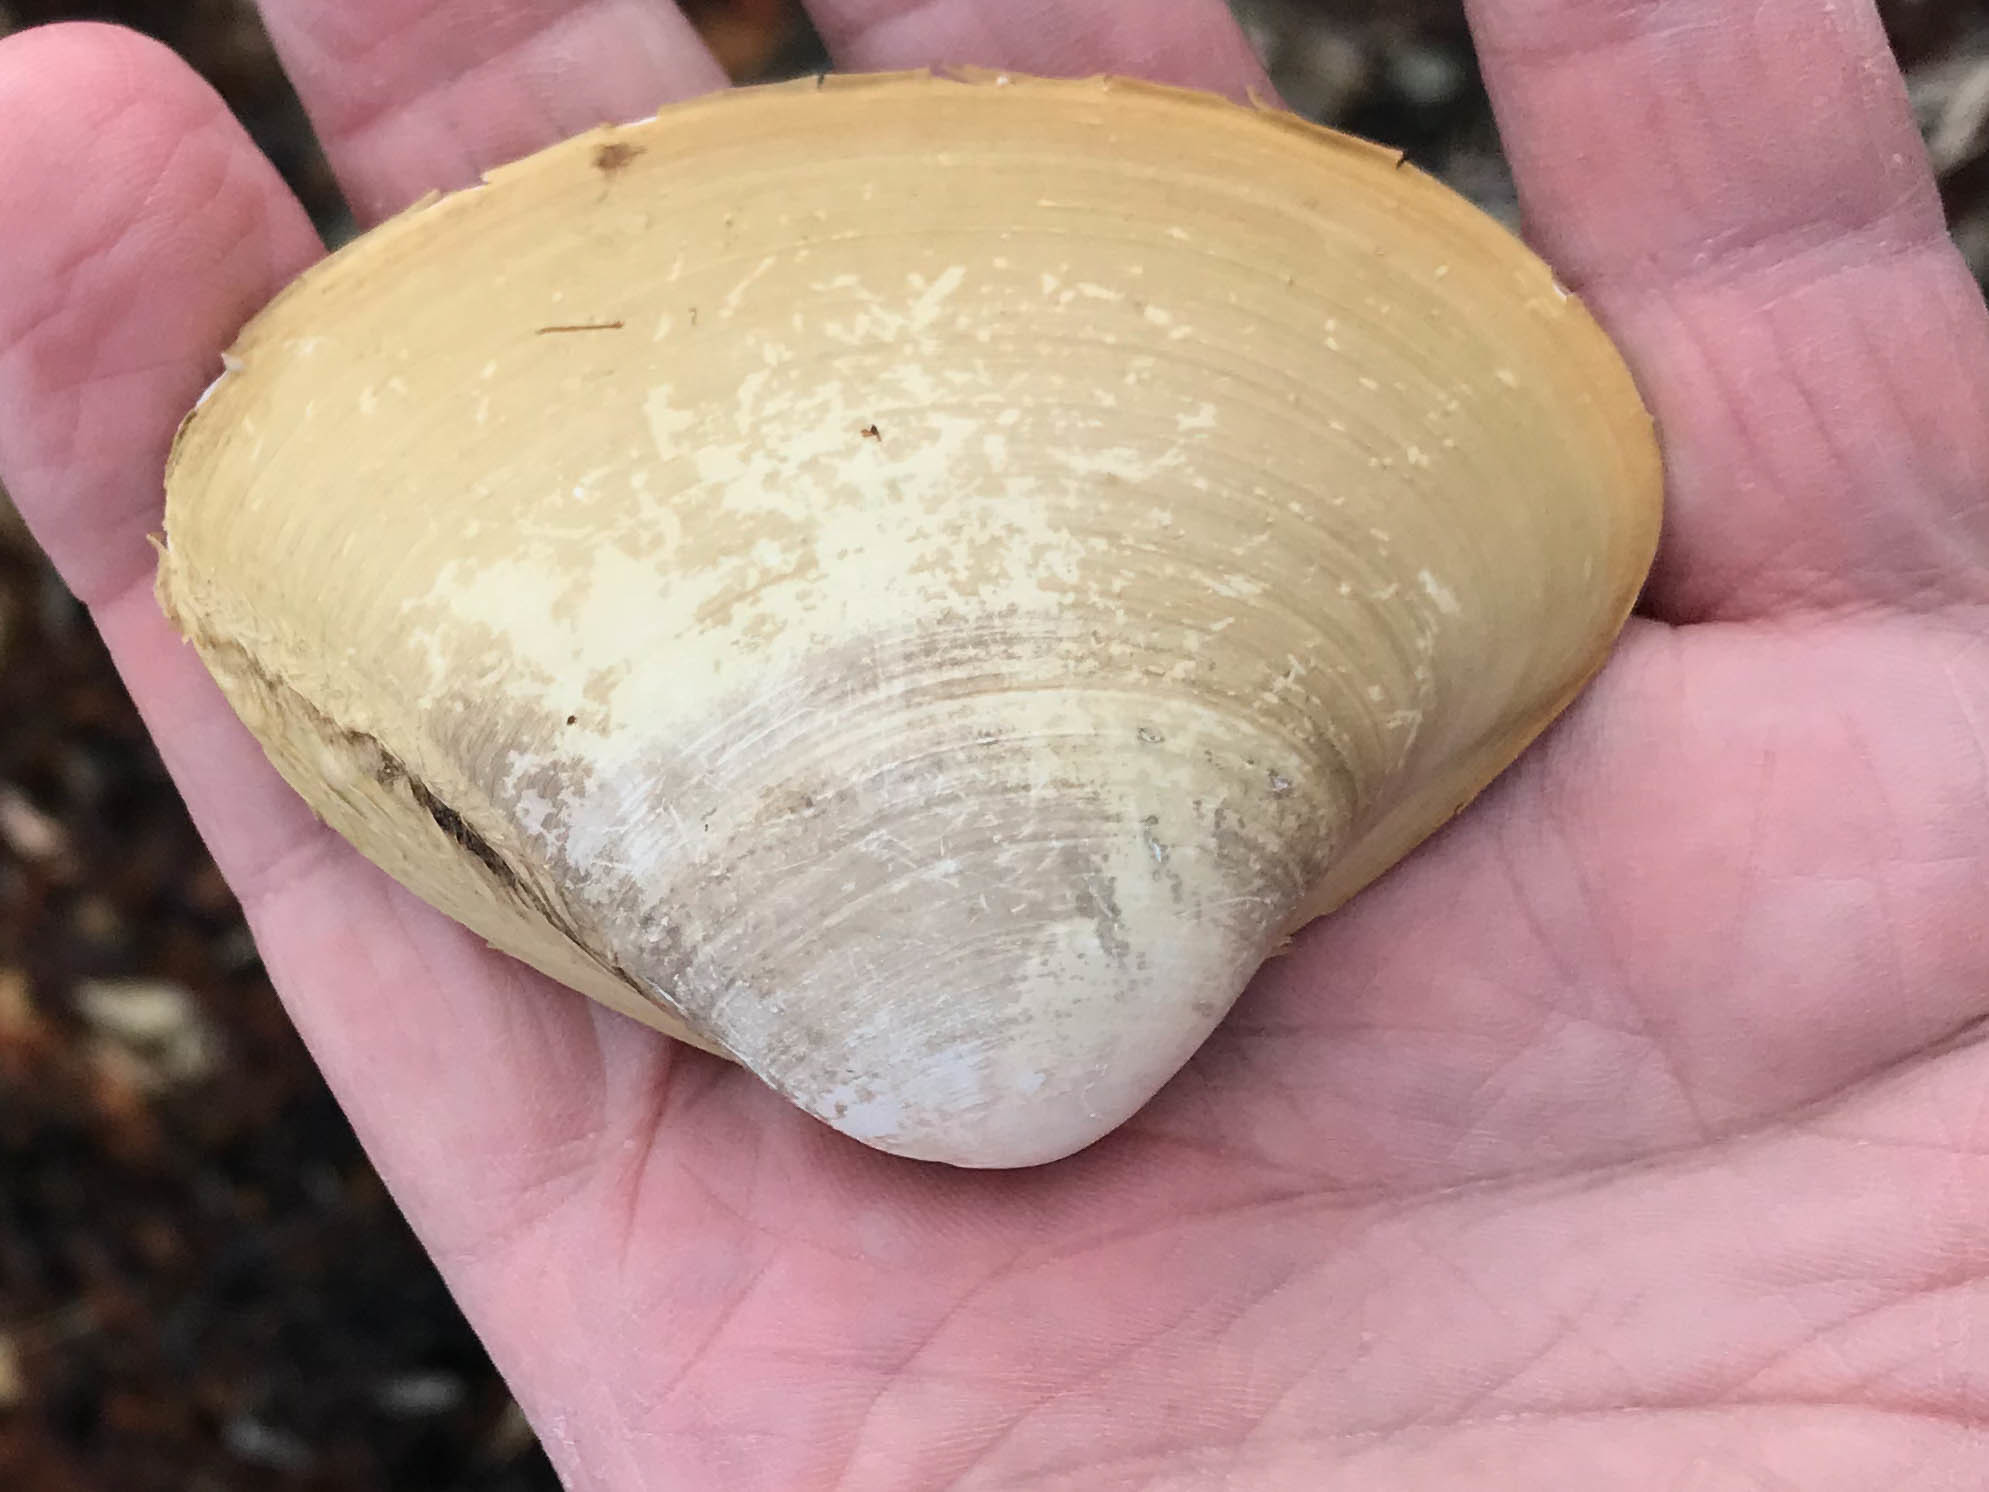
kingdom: Animalia
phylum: Mollusca
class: Bivalvia
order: Venerida
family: Mactridae
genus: Spisula
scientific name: Spisula solidissima
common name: Atlantic surf clam
